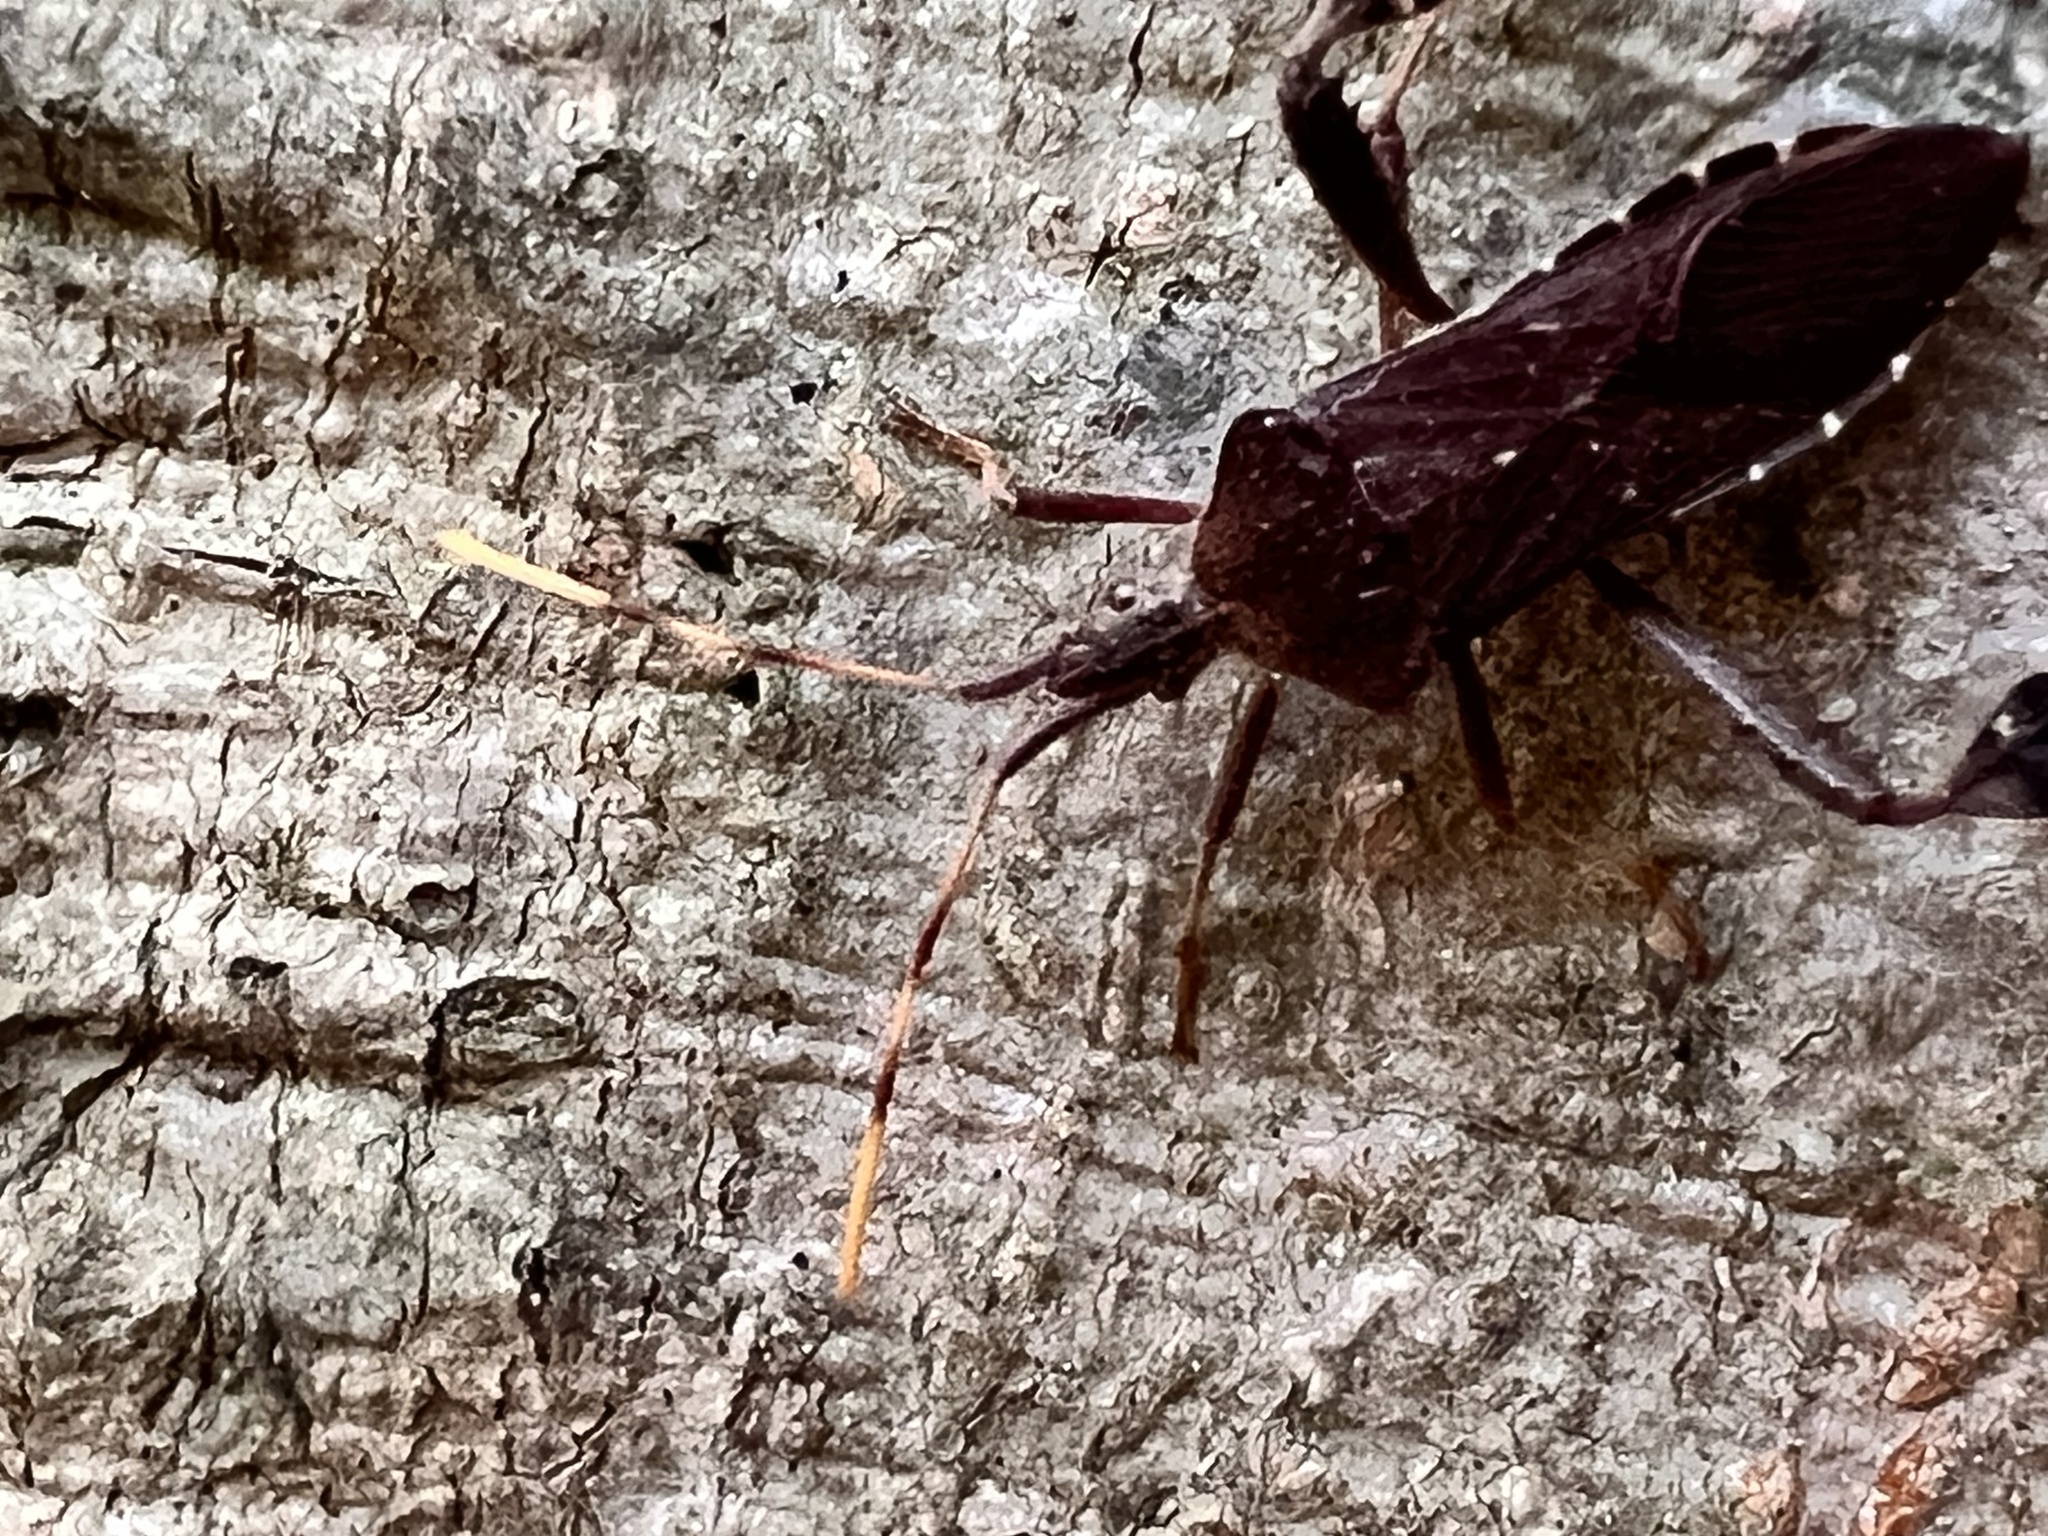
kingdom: Animalia
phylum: Arthropoda
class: Insecta
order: Hemiptera
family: Coreidae
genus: Leptoglossus
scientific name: Leptoglossus oppositus
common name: Northern leaf-footed bug
